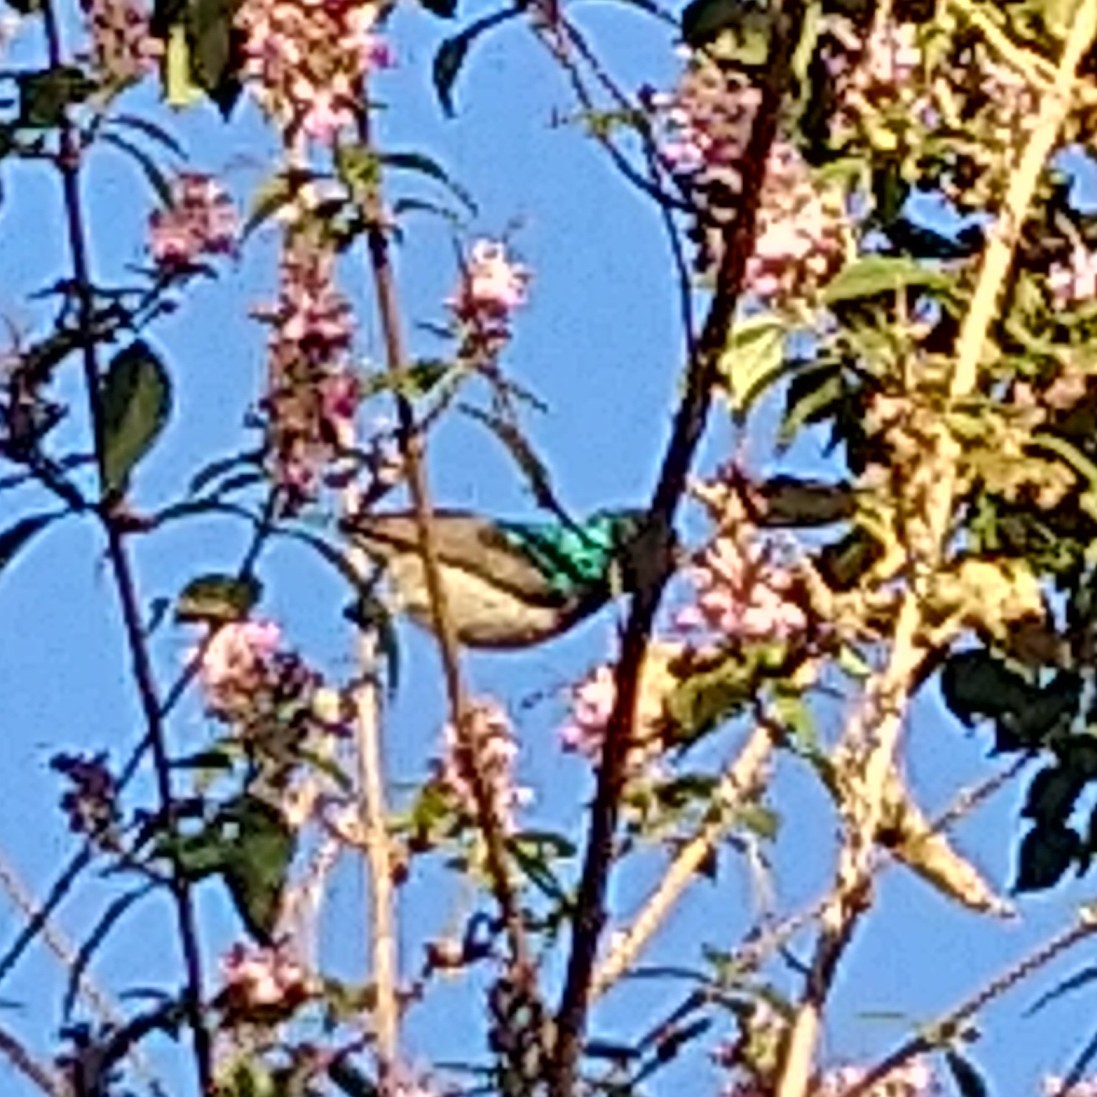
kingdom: Animalia
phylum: Chordata
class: Aves
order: Passeriformes
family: Nectariniidae
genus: Cinnyris
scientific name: Cinnyris talatala
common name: White-bellied sunbird
